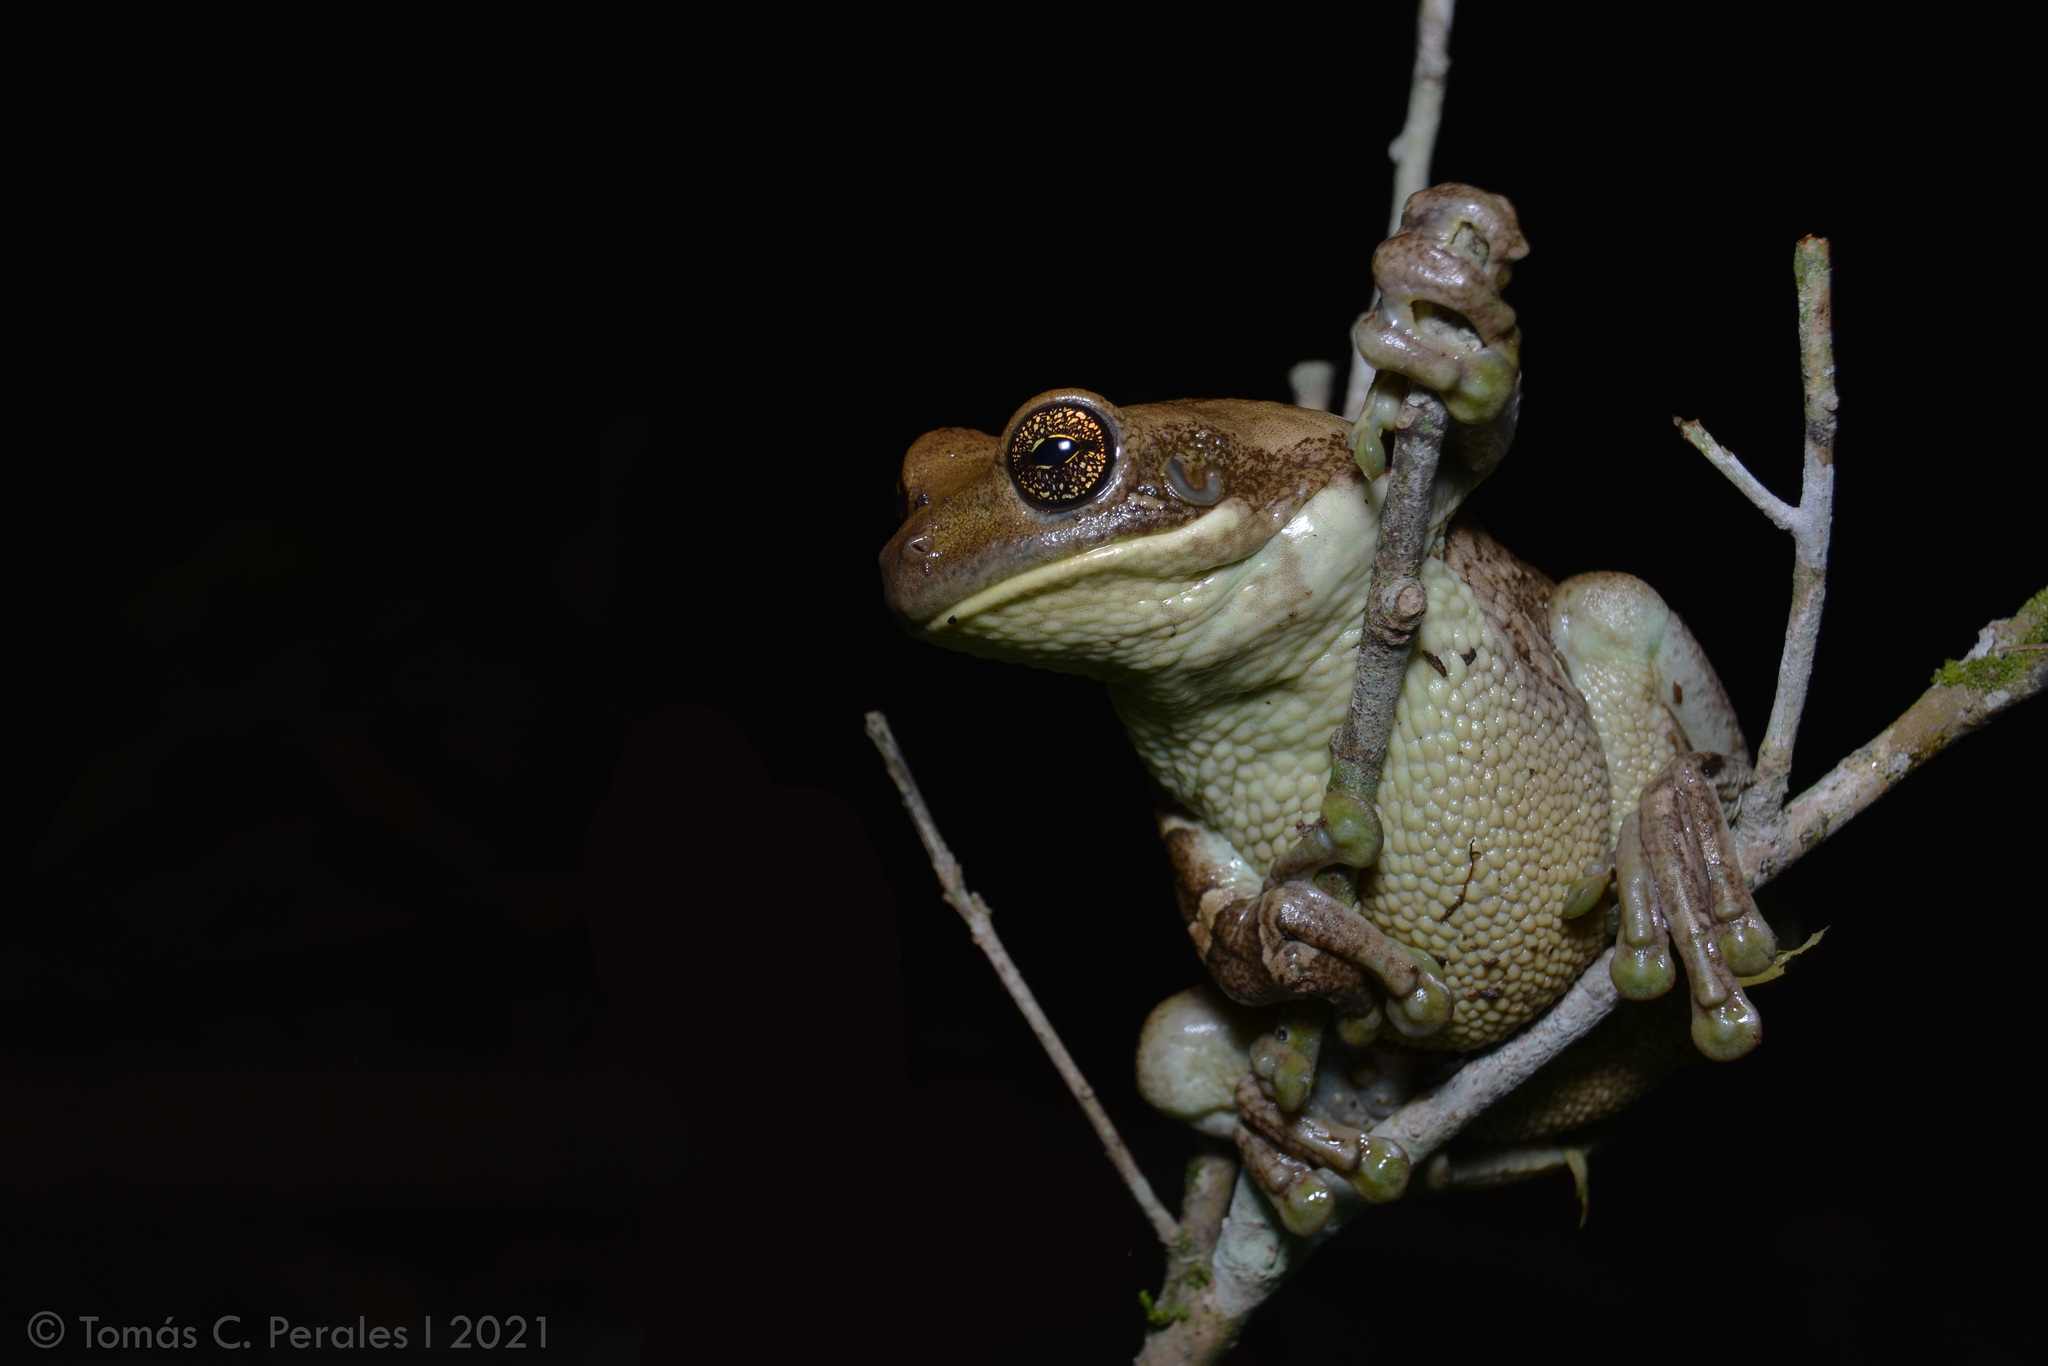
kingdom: Animalia
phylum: Chordata
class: Amphibia
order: Anura
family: Hylidae
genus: Trachycephalus
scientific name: Trachycephalus typhonius
